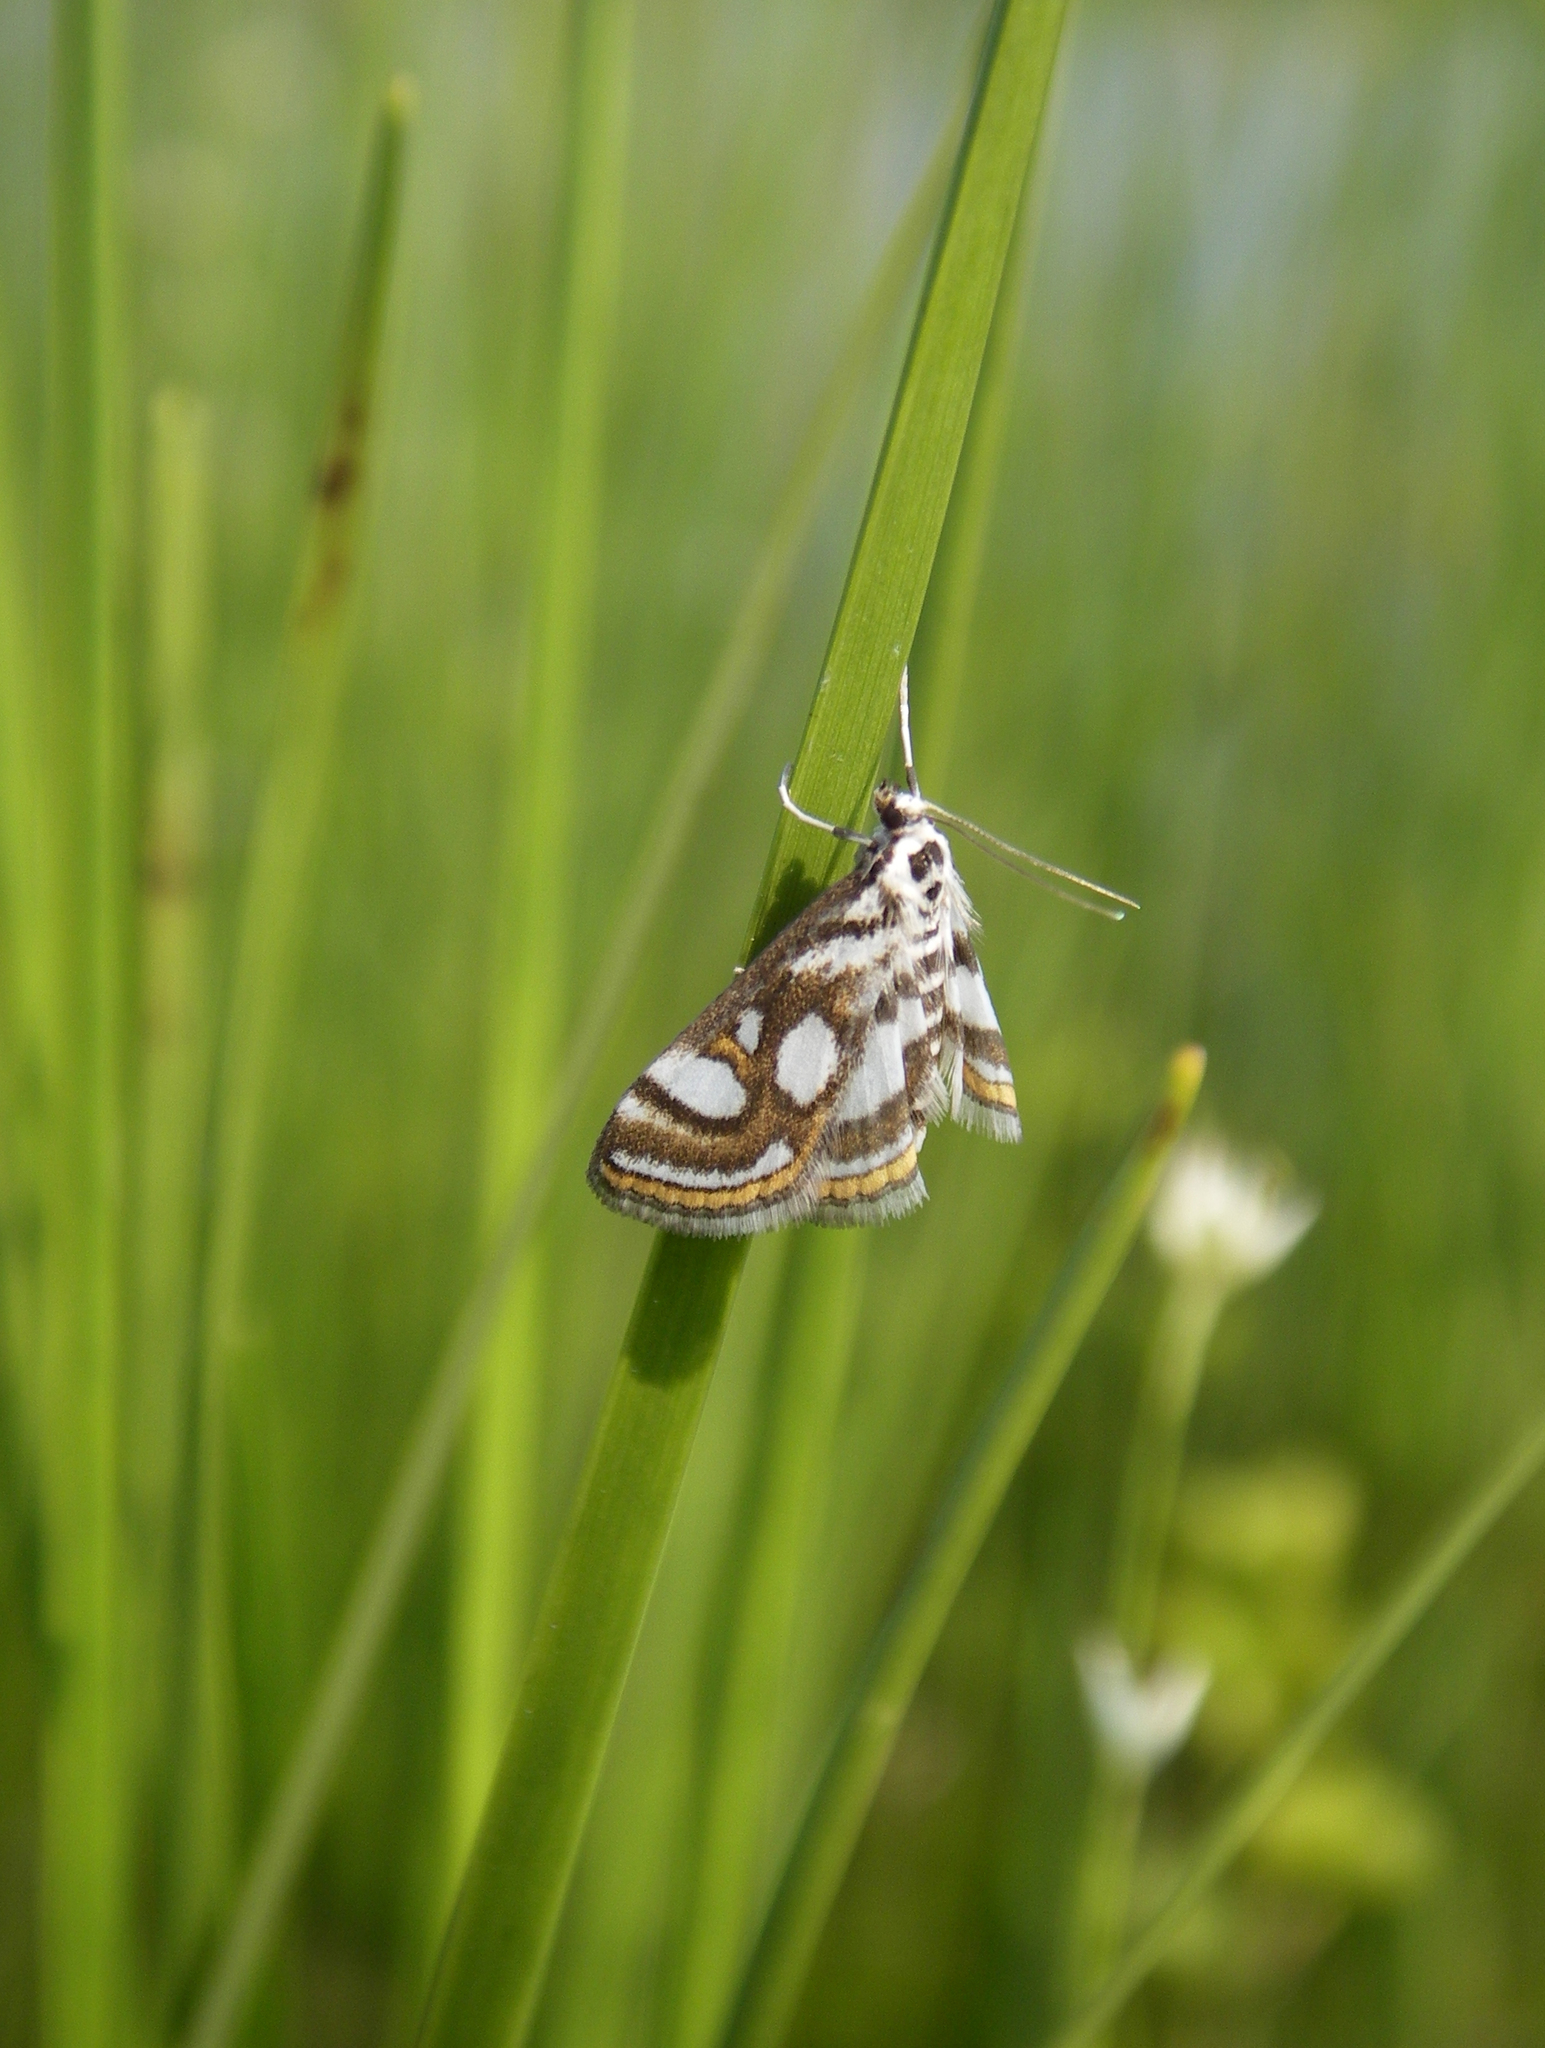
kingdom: Animalia
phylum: Arthropoda
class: Insecta
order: Lepidoptera
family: Crambidae
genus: Nymphula
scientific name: Nymphula nitidulata
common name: Beautiful china mark
